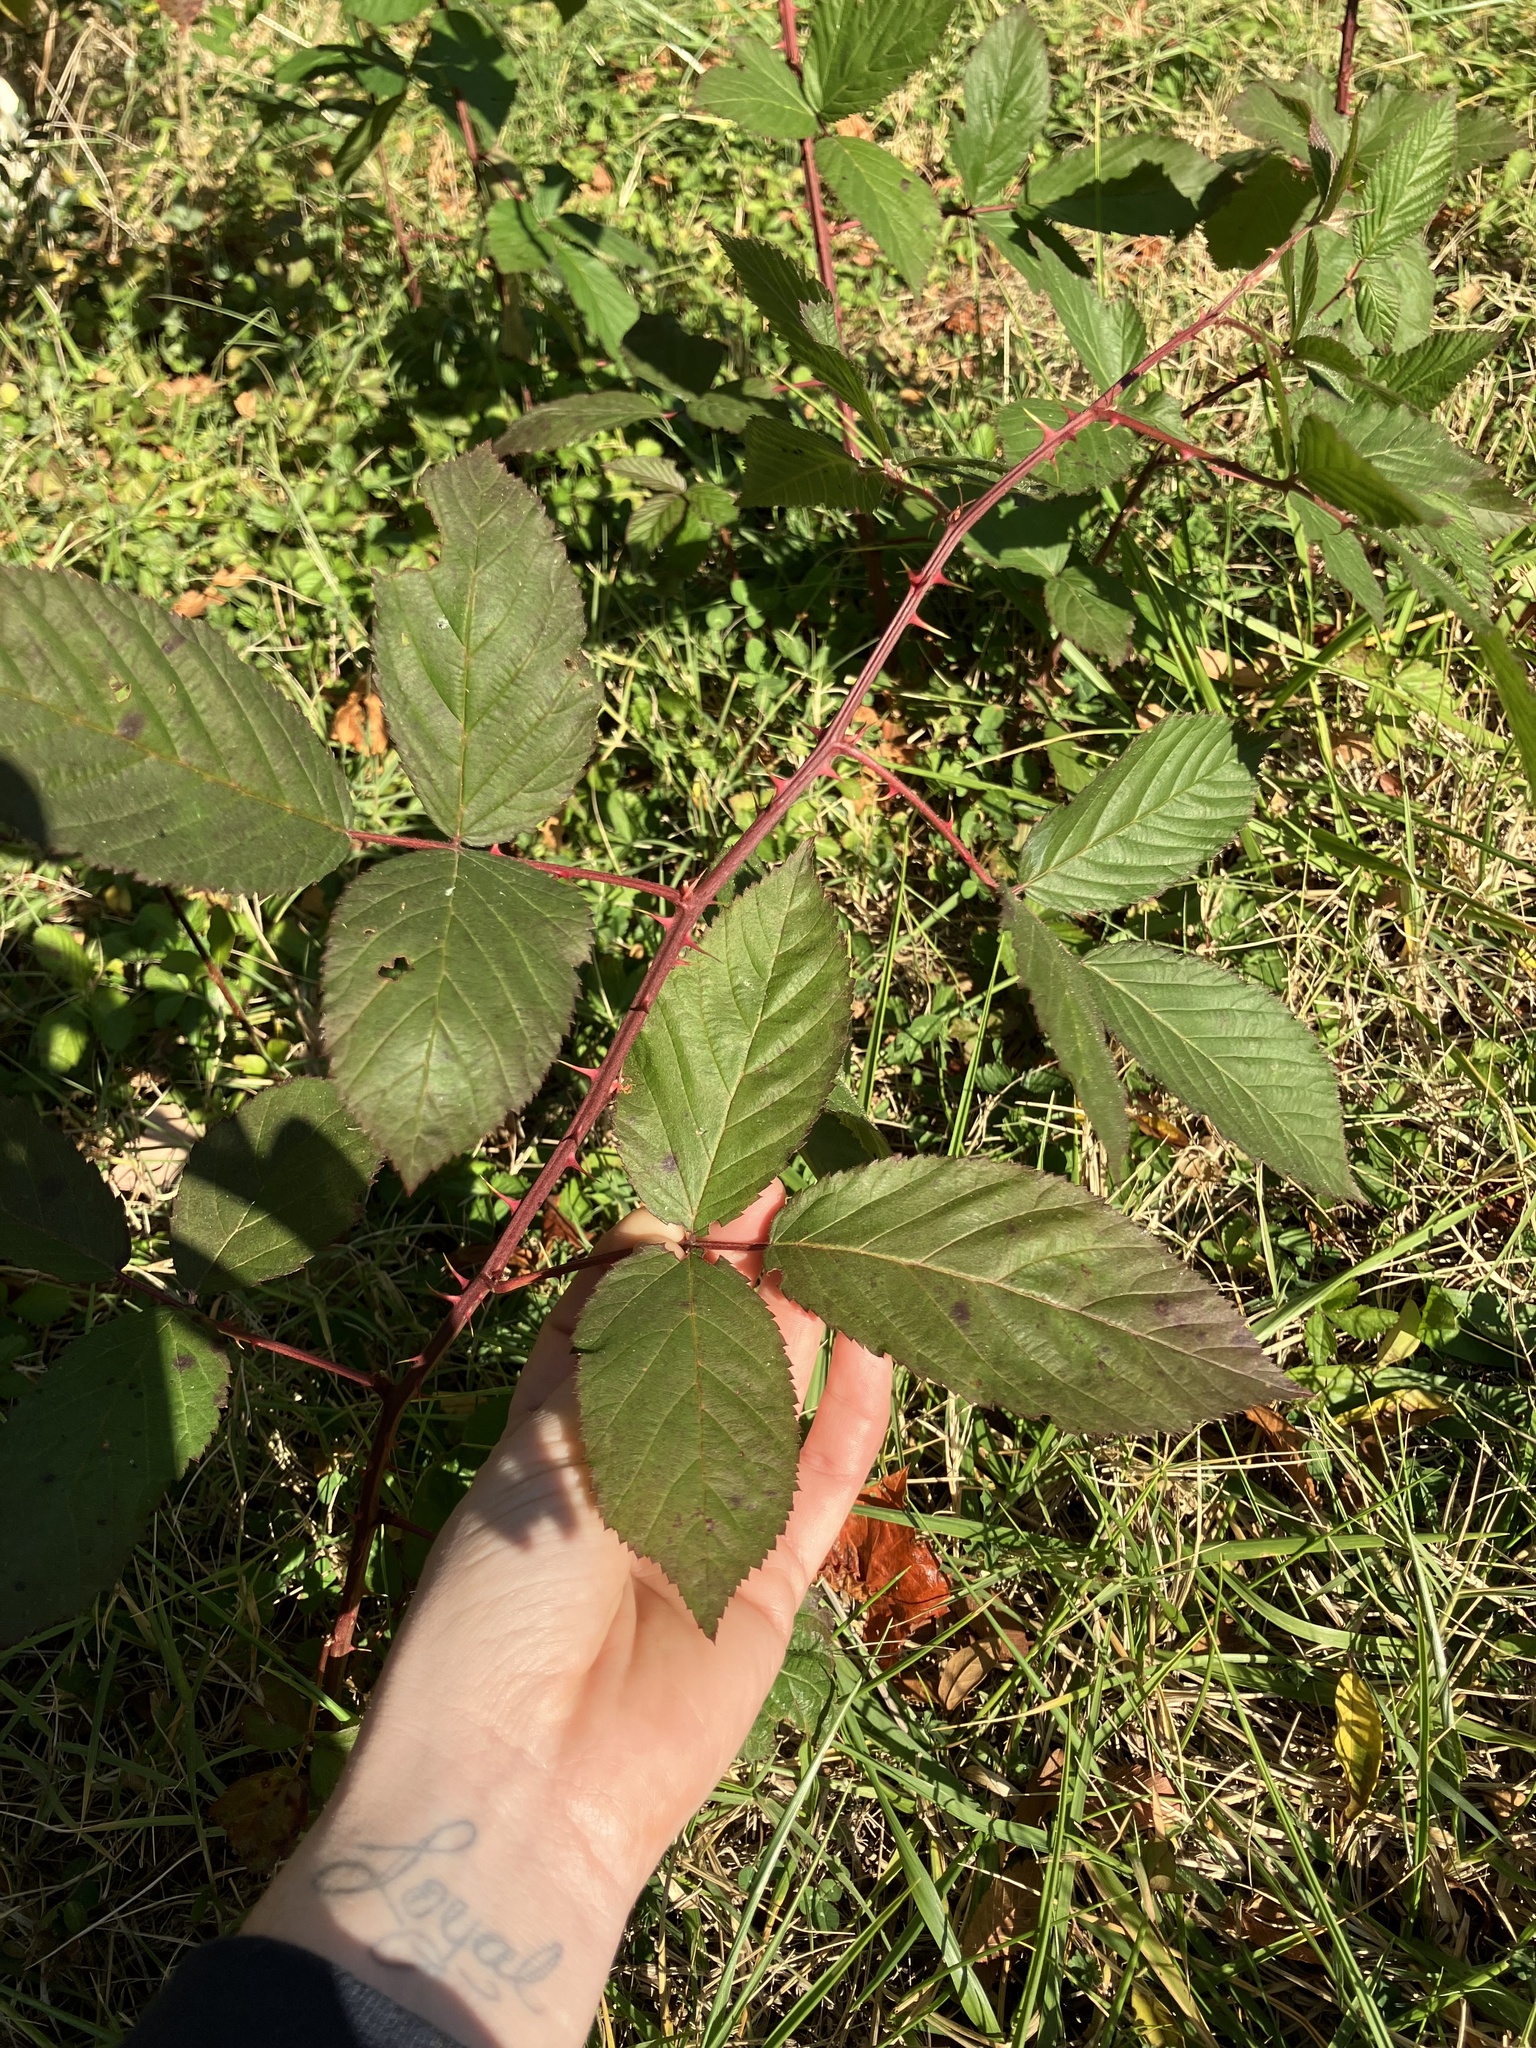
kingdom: Plantae
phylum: Tracheophyta
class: Magnoliopsida
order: Rosales
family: Rosaceae
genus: Rubus
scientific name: Rubus allegheniensis
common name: Allegheny blackberry
